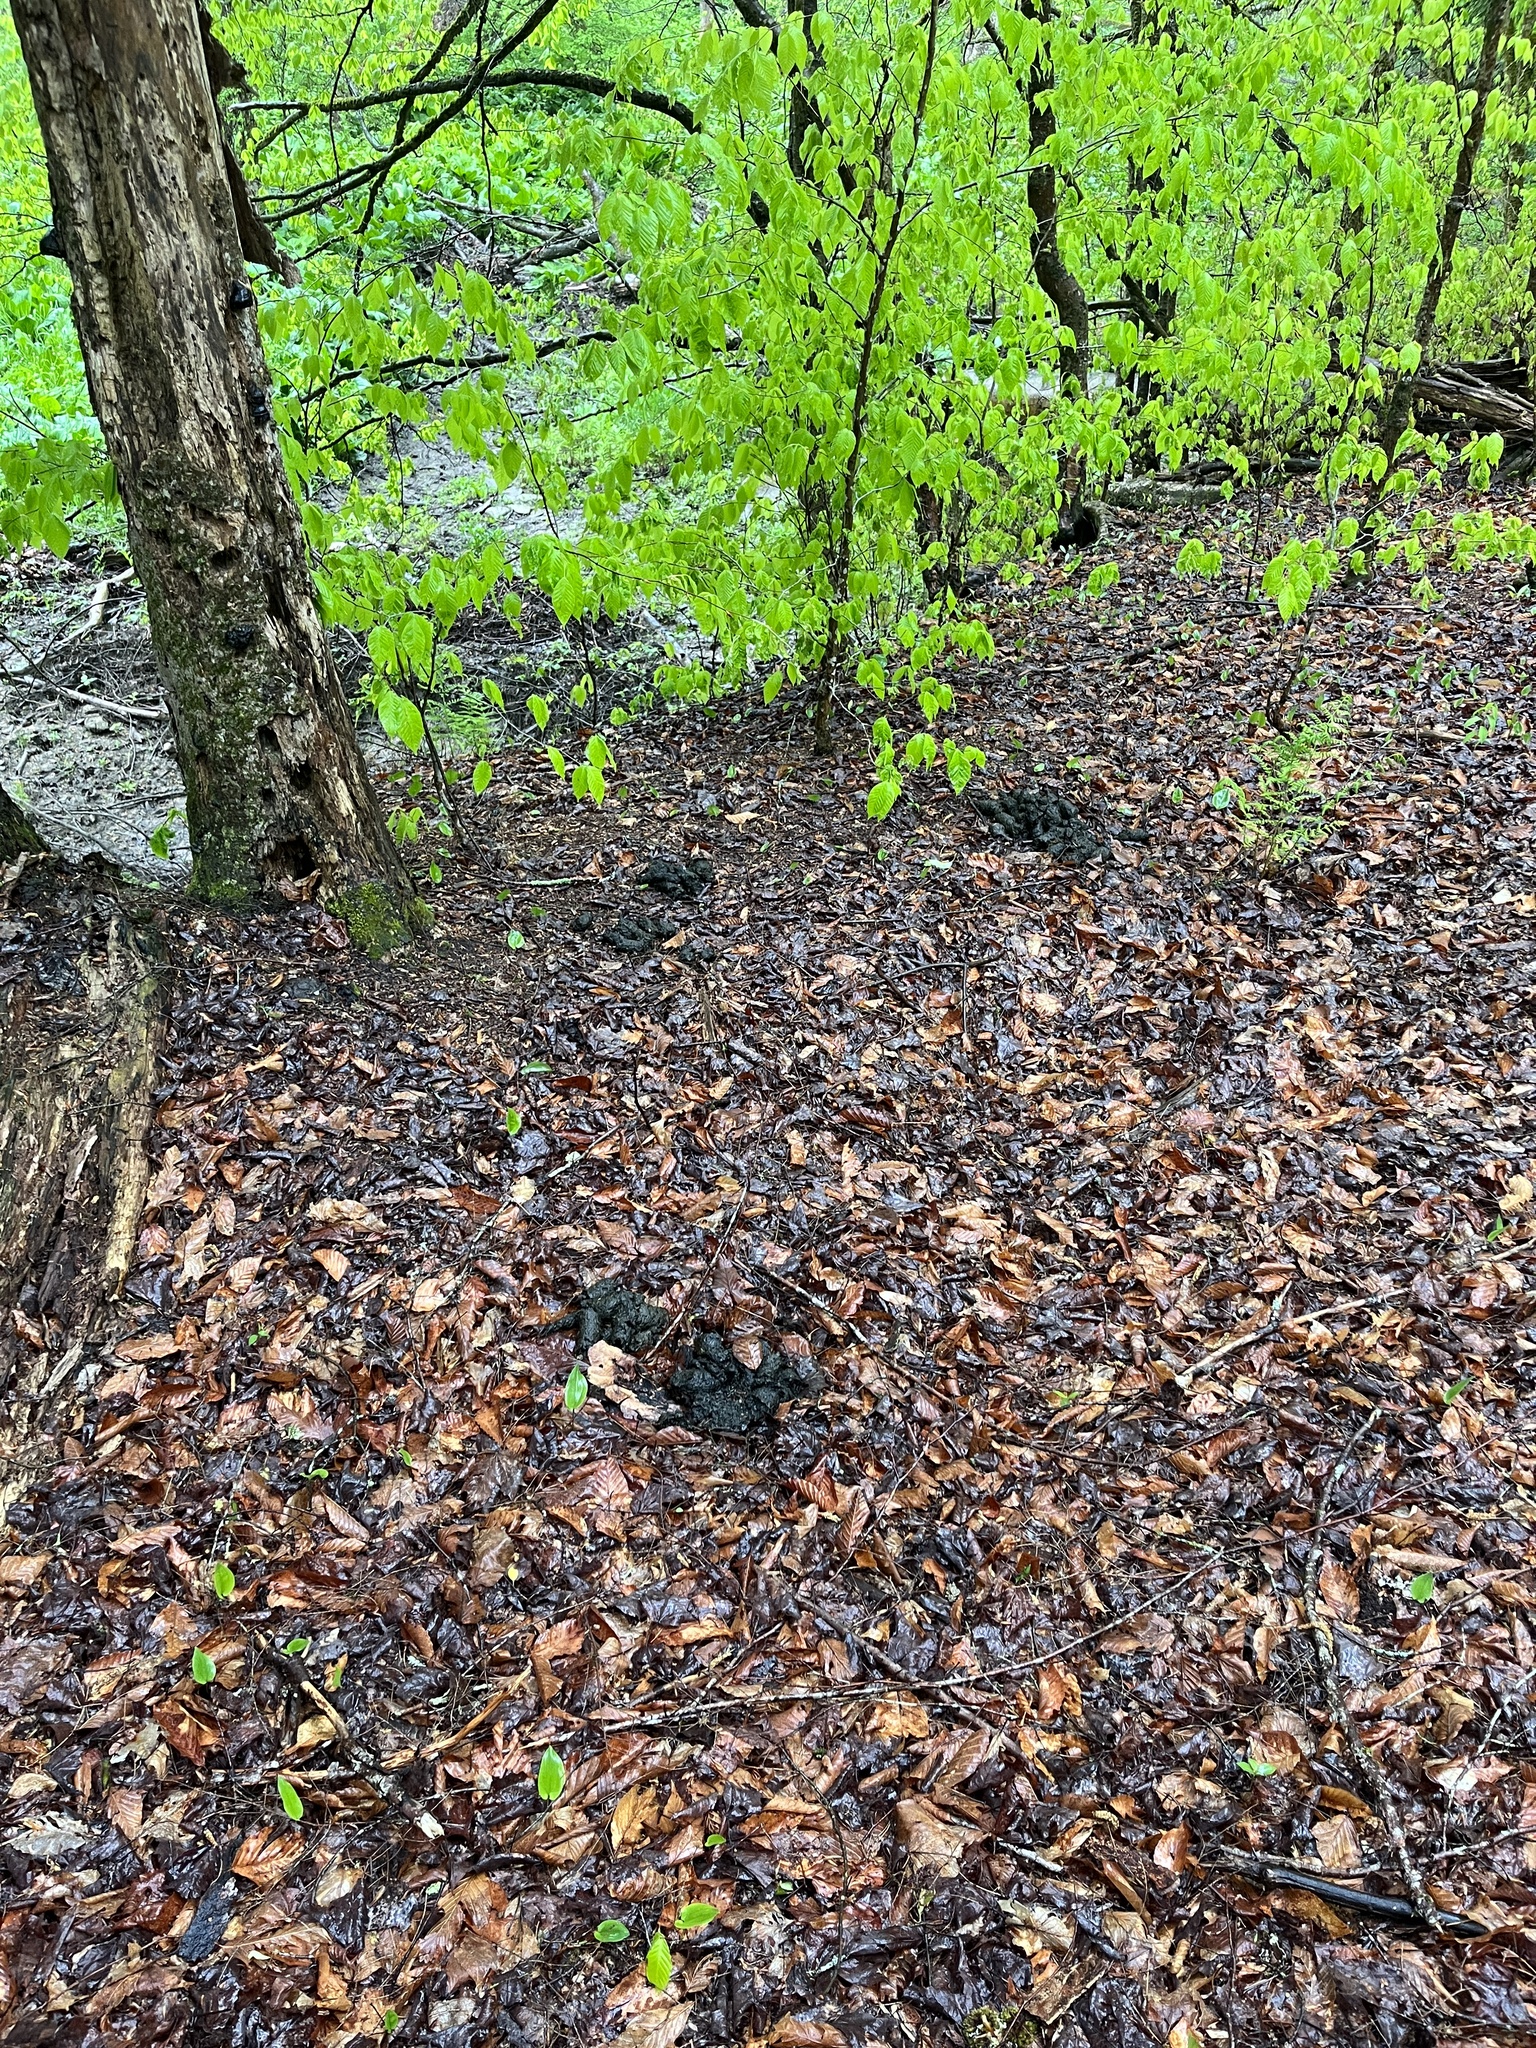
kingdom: Animalia
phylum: Chordata
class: Mammalia
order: Carnivora
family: Ursidae
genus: Ursus
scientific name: Ursus americanus
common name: American black bear
